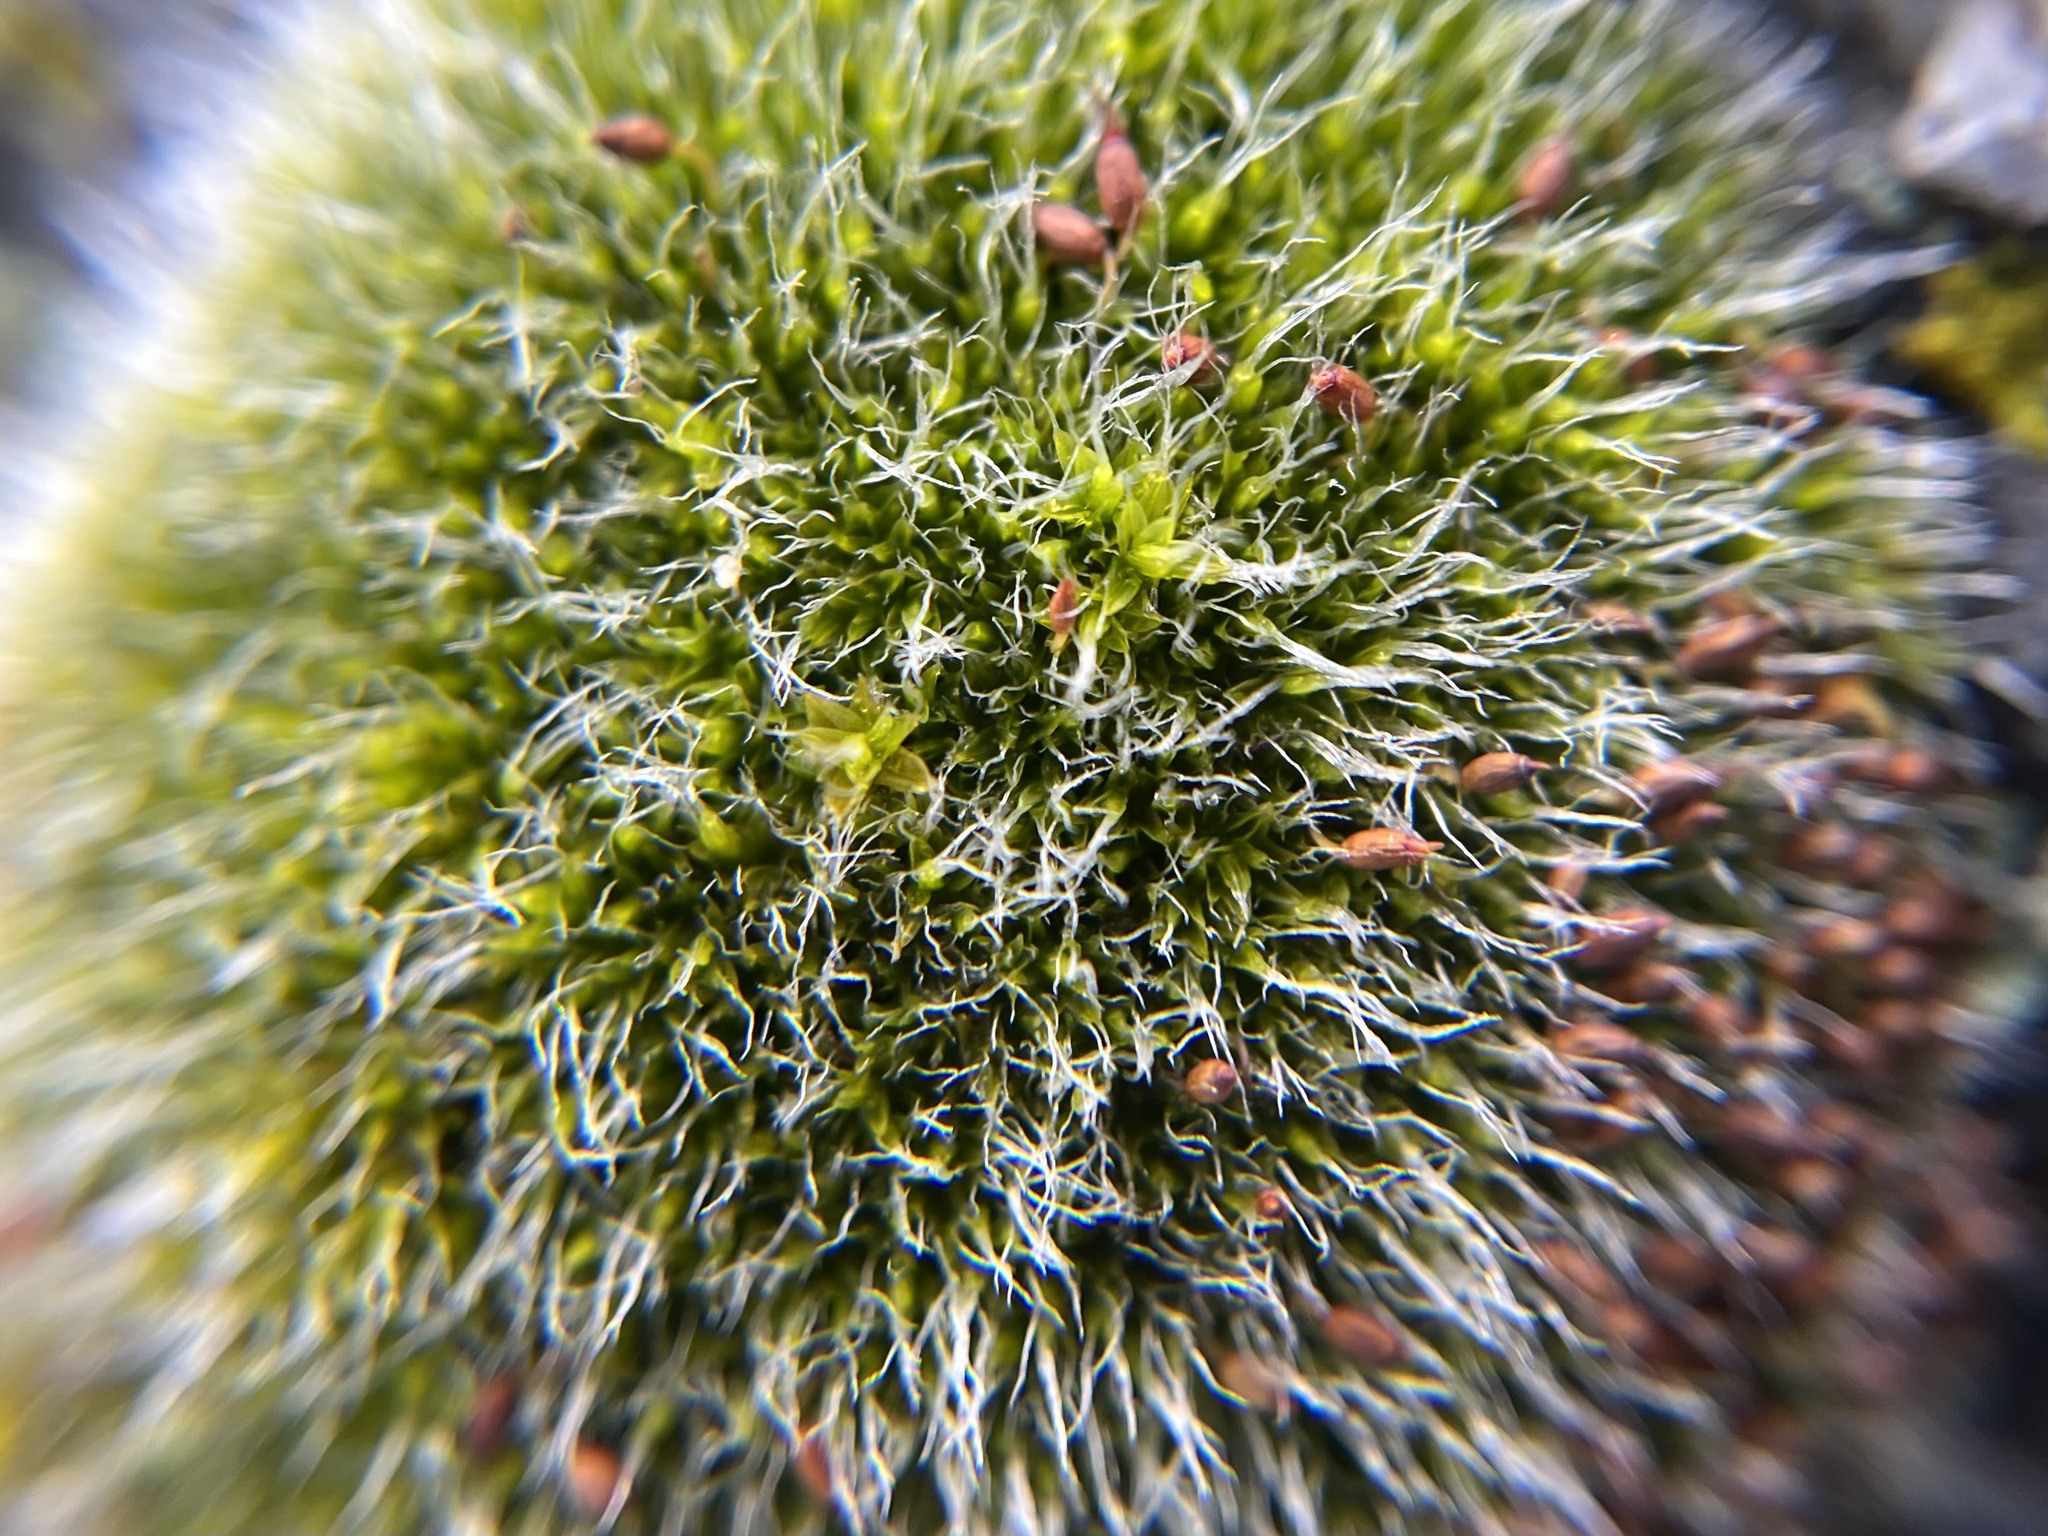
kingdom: Plantae
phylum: Bryophyta
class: Bryopsida
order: Grimmiales
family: Grimmiaceae
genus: Grimmia
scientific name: Grimmia pulvinata
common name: Grey-cushioned grimmia
